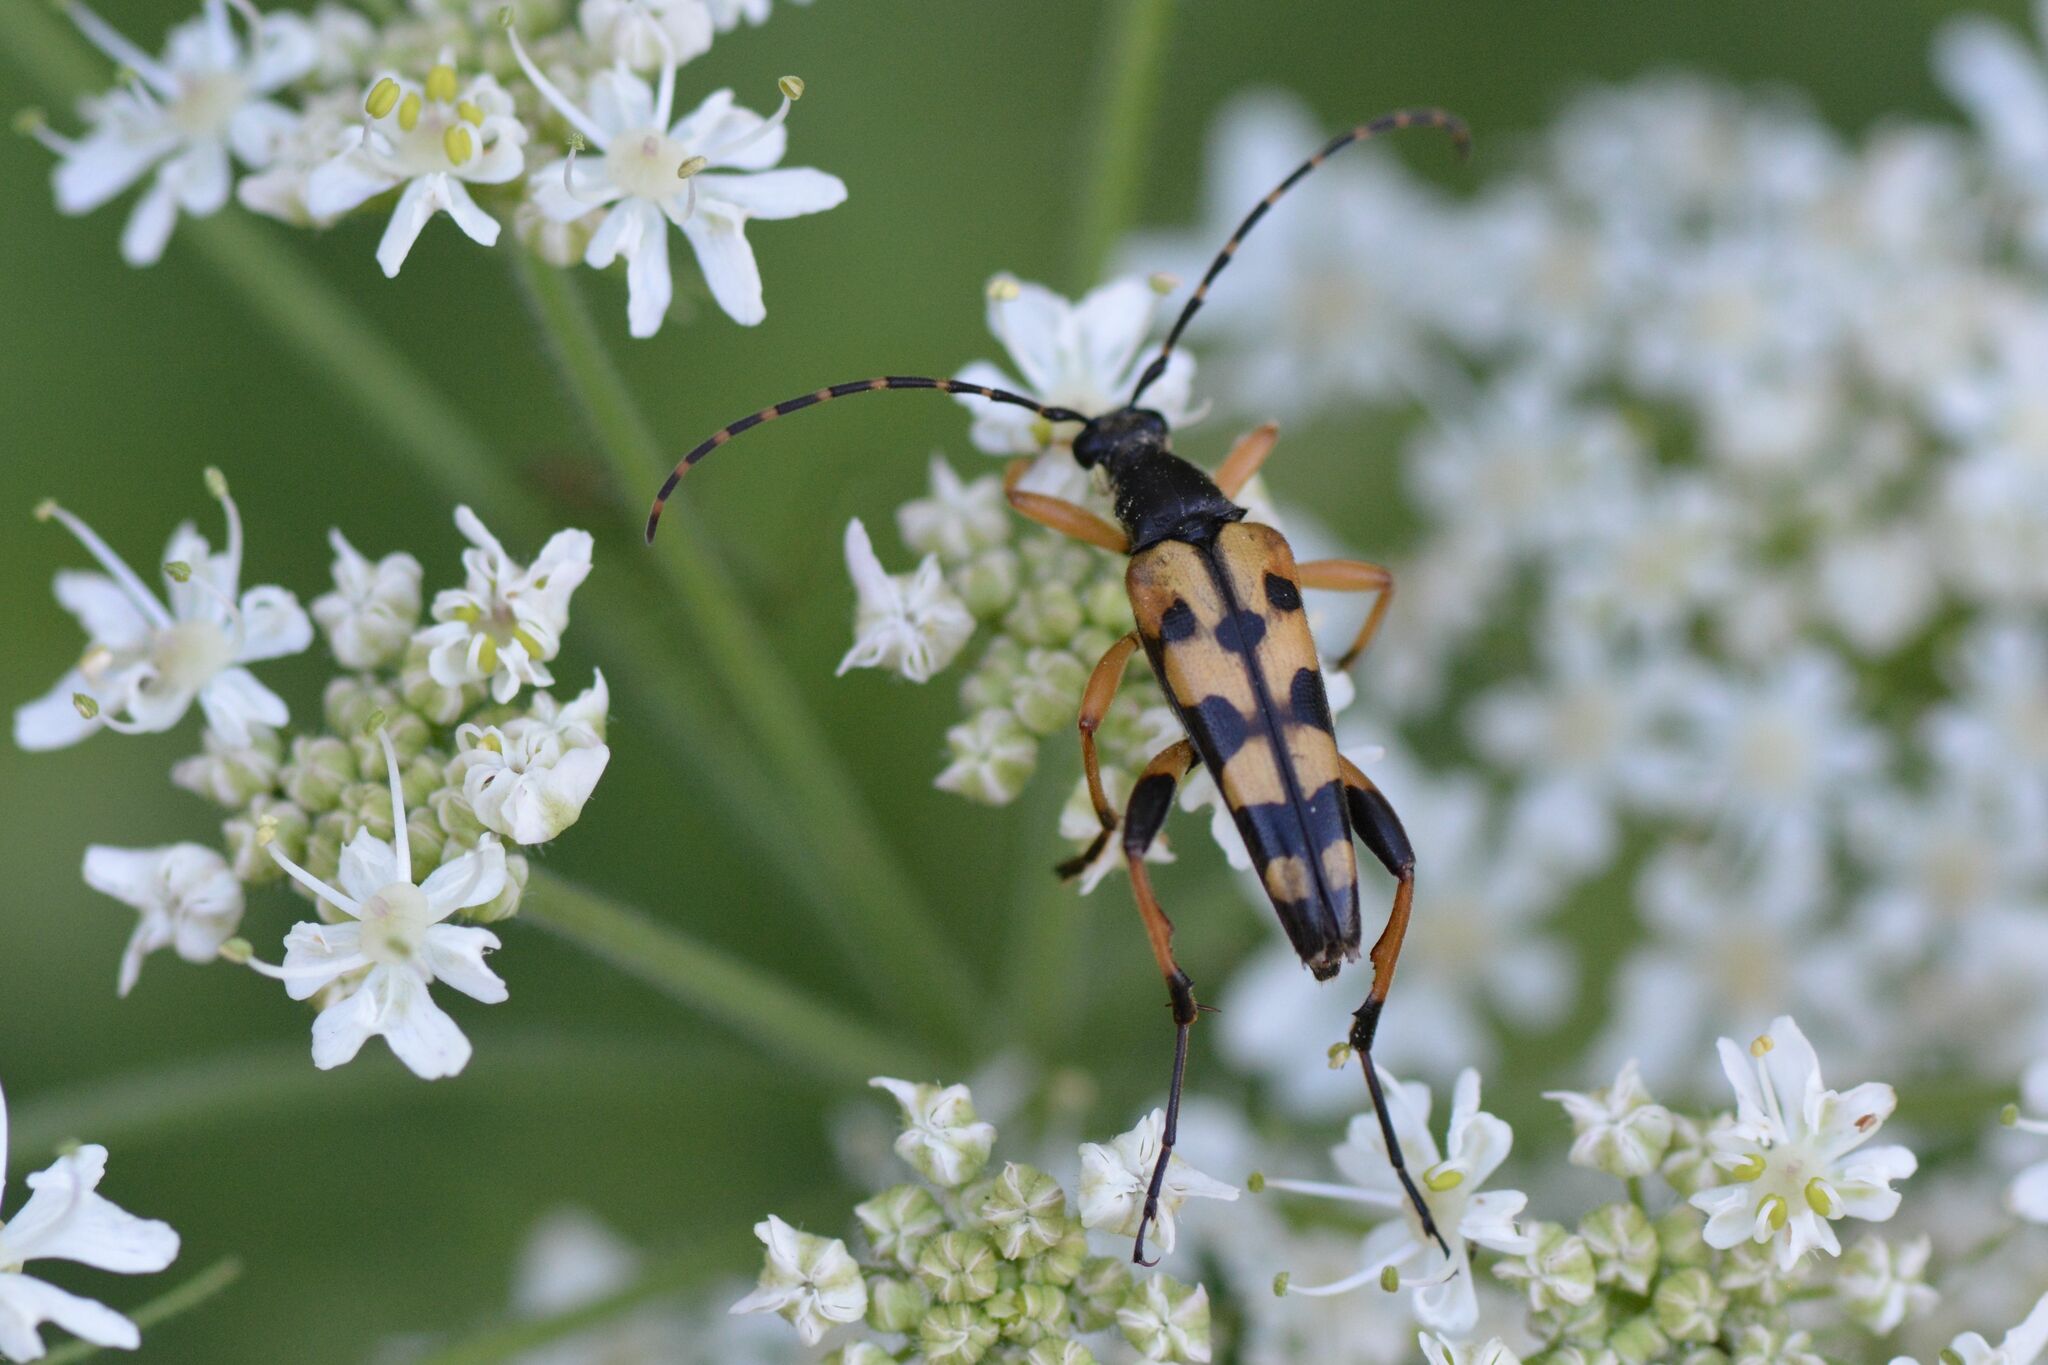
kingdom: Animalia
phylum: Arthropoda
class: Insecta
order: Coleoptera
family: Cerambycidae
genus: Rutpela
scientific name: Rutpela maculata
